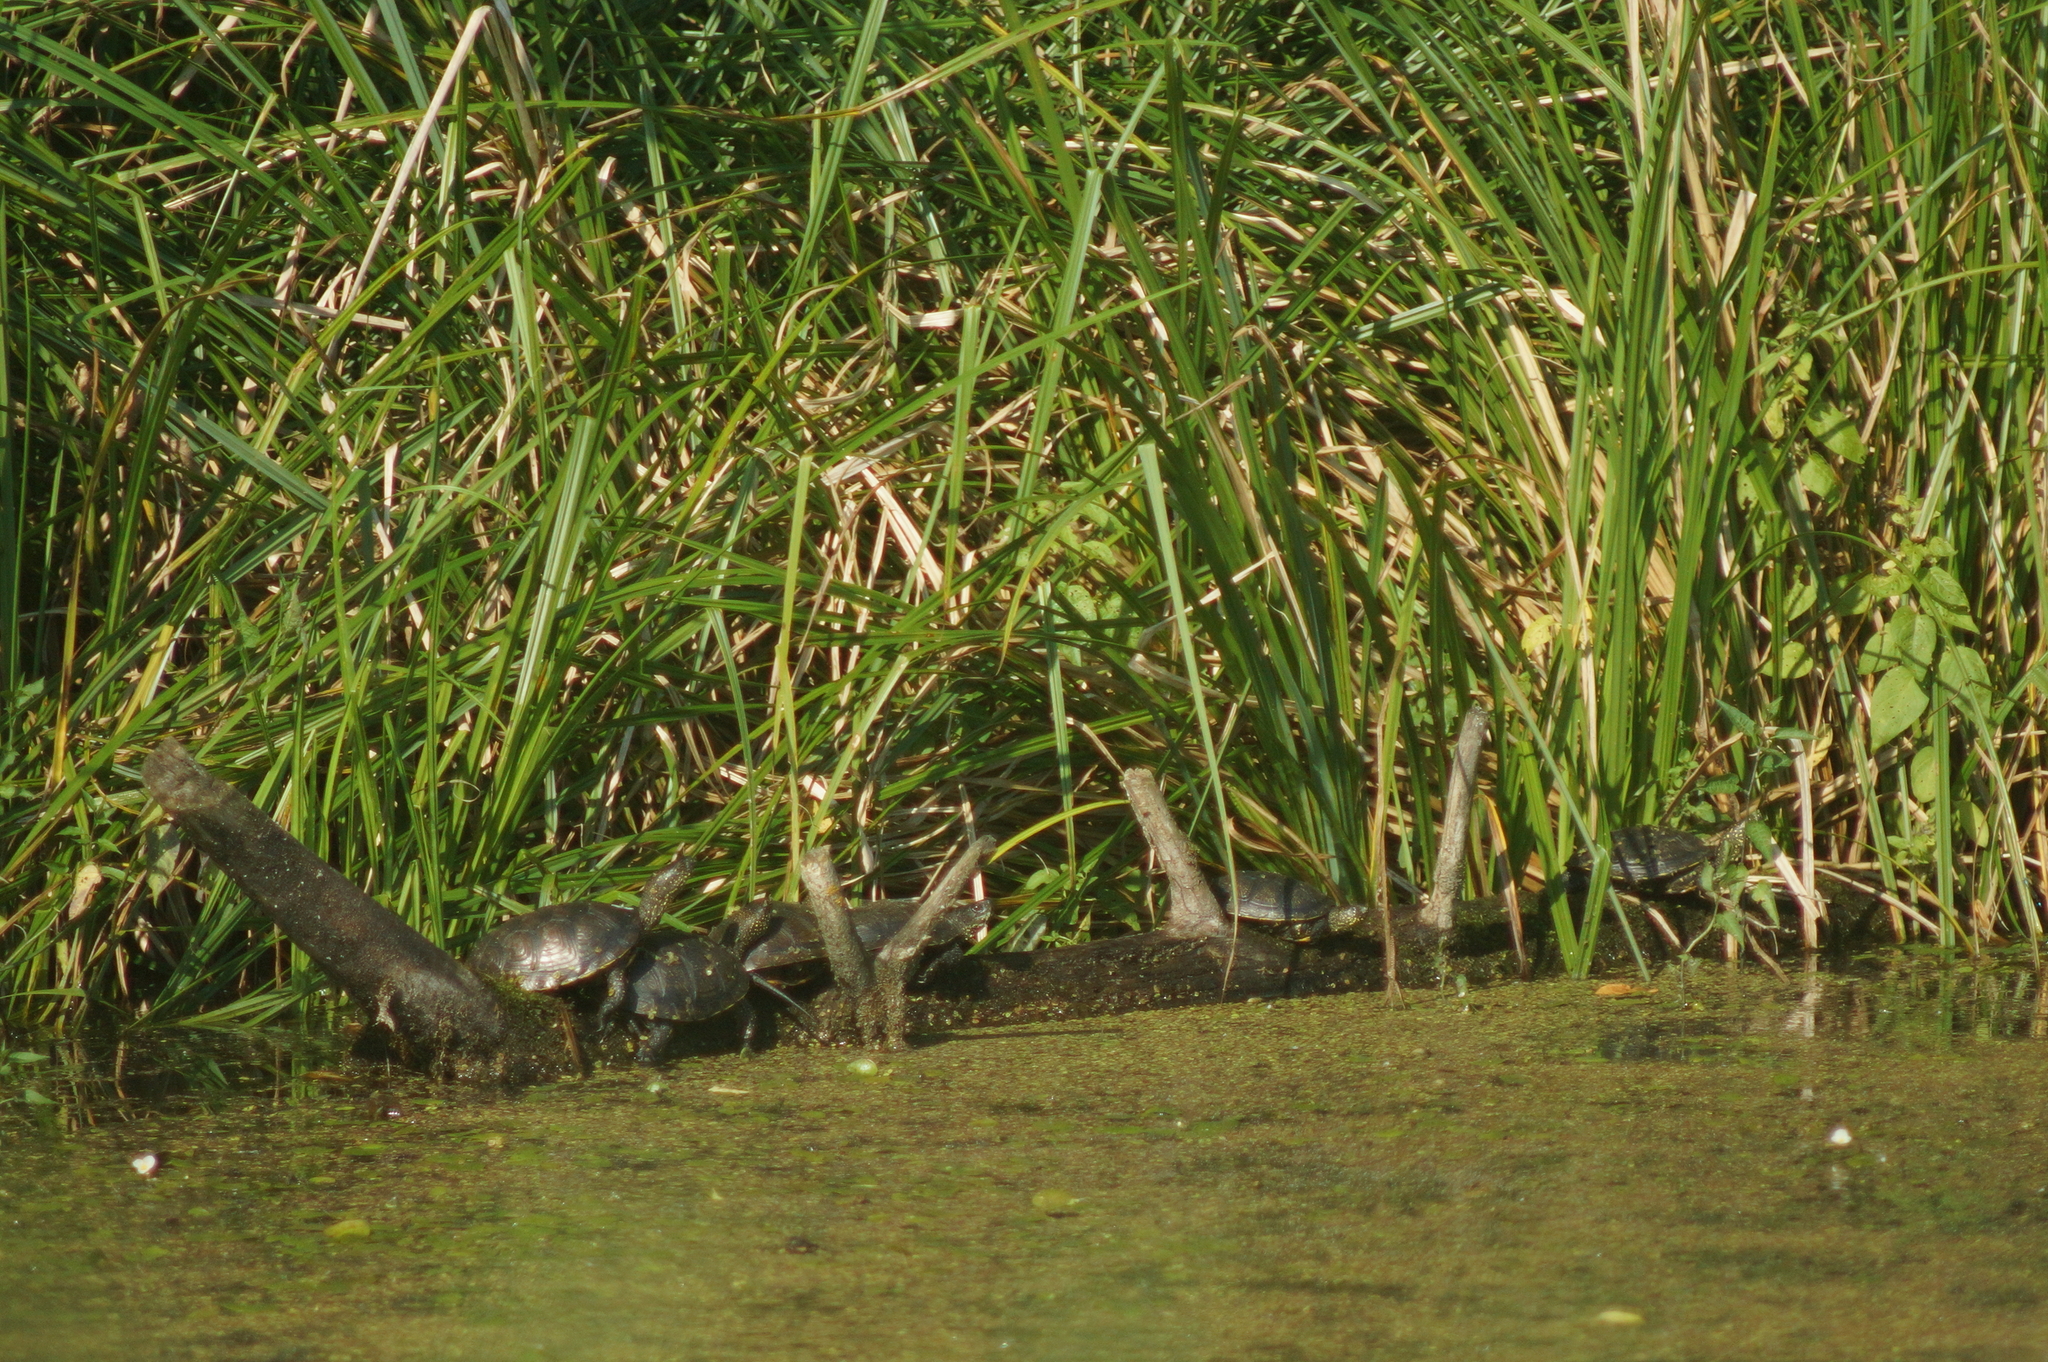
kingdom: Animalia
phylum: Chordata
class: Testudines
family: Emydidae
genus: Emys
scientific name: Emys orbicularis
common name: European pond turtle
